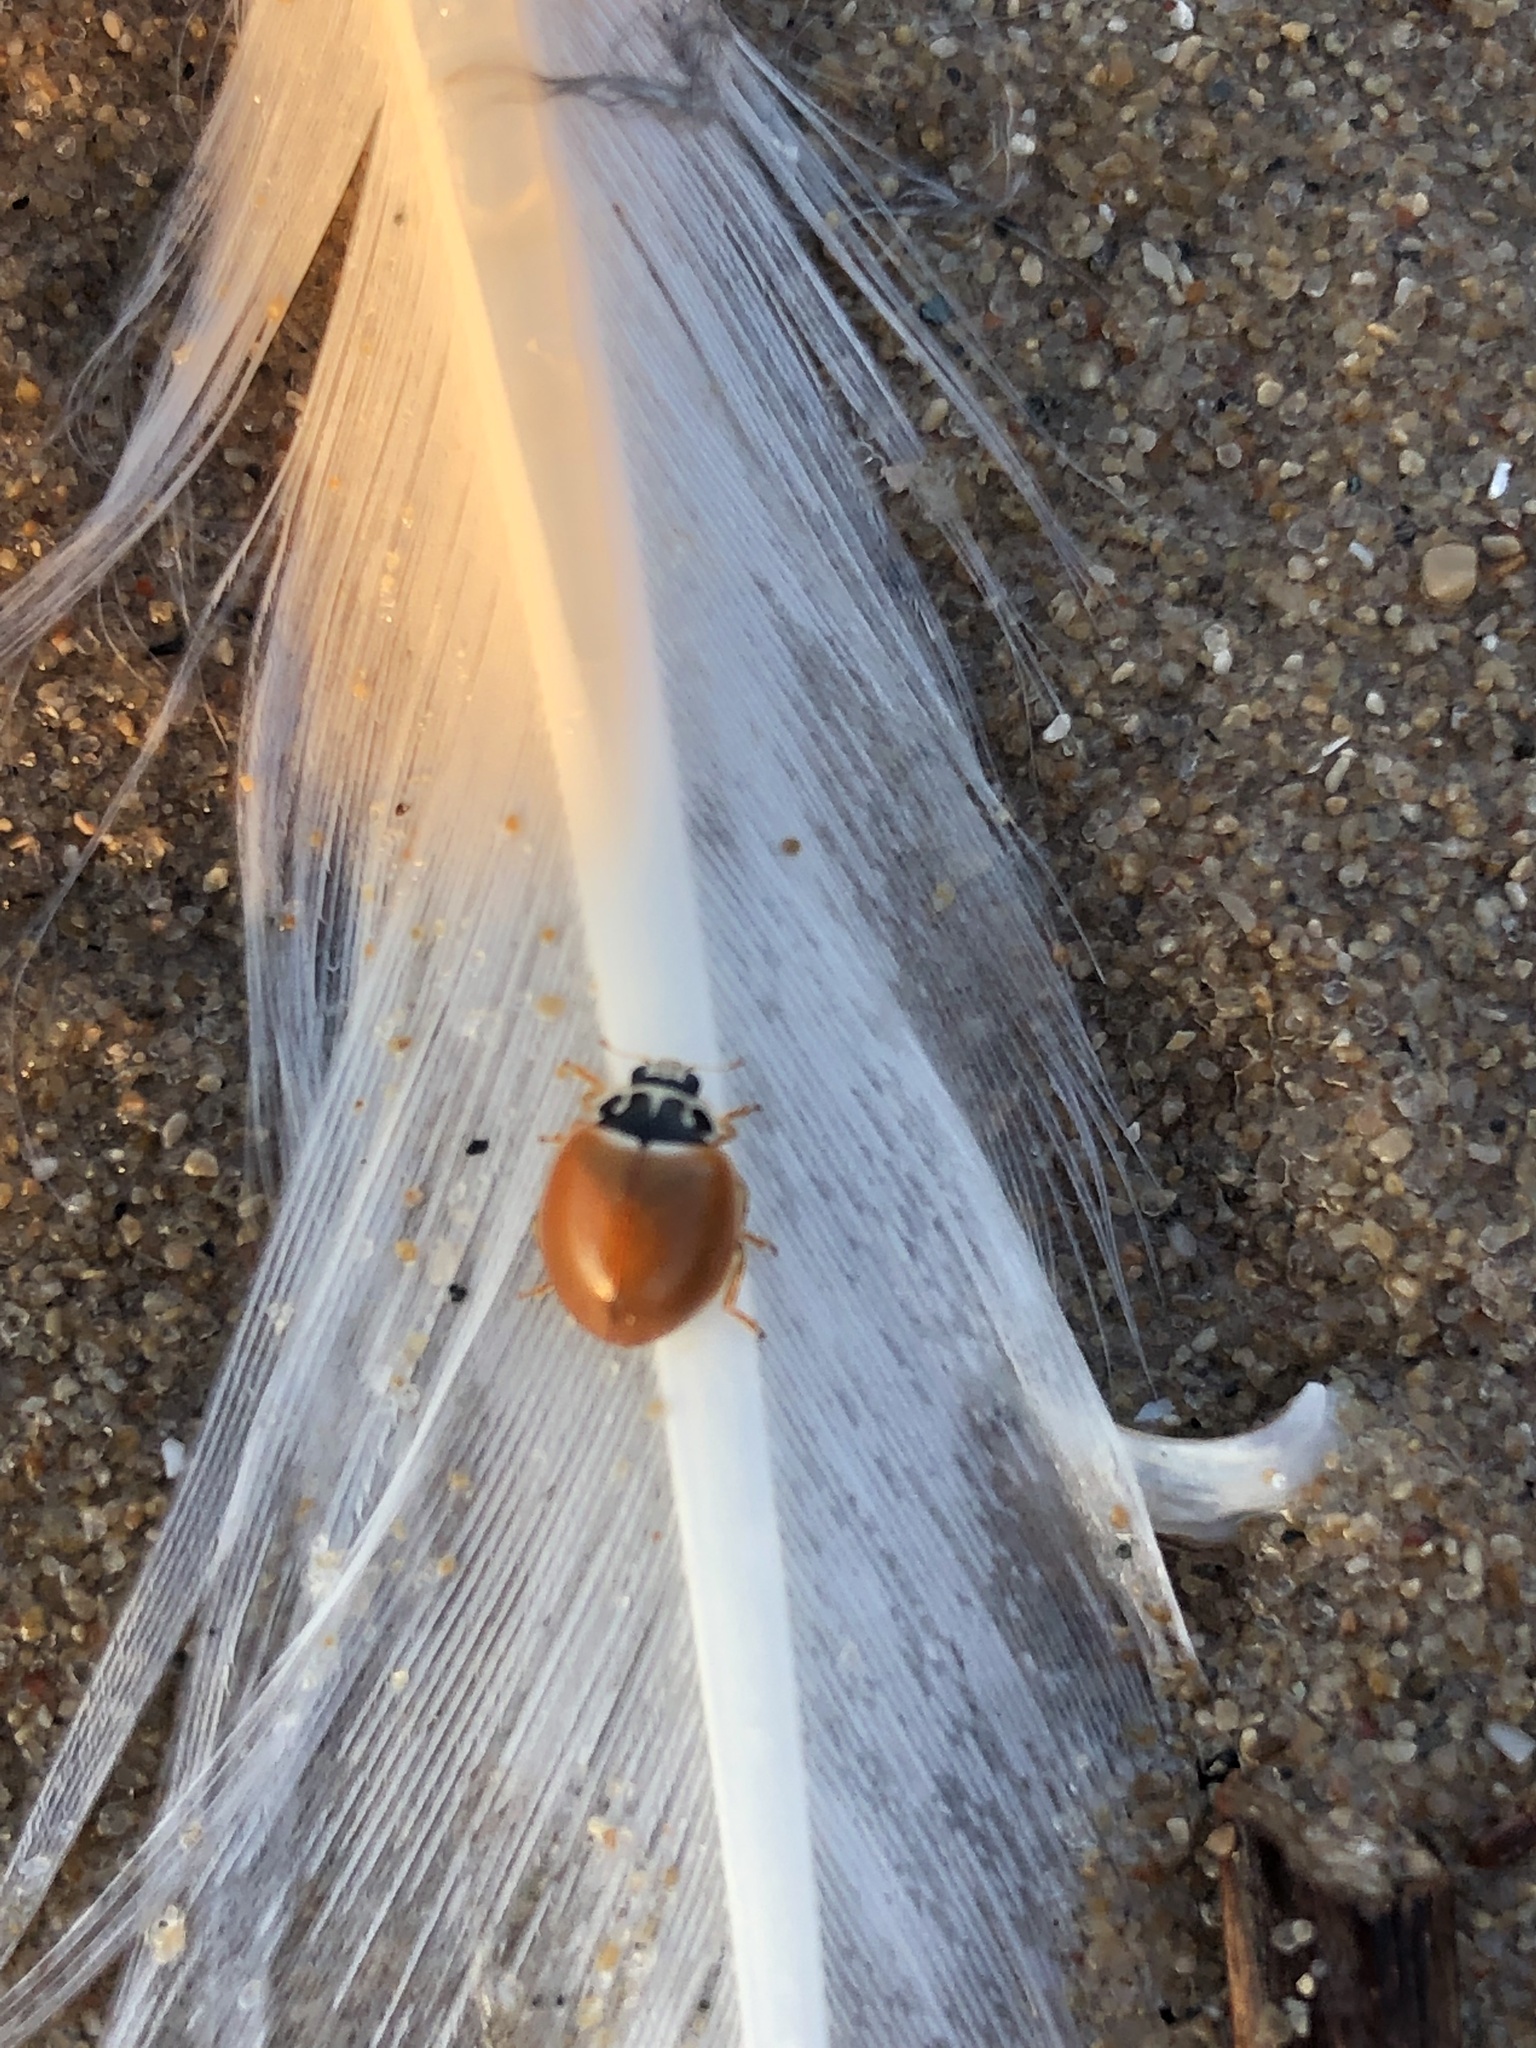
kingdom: Animalia
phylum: Arthropoda
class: Insecta
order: Coleoptera
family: Coccinellidae
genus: Cycloneda
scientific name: Cycloneda munda
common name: Polished lady beetle
